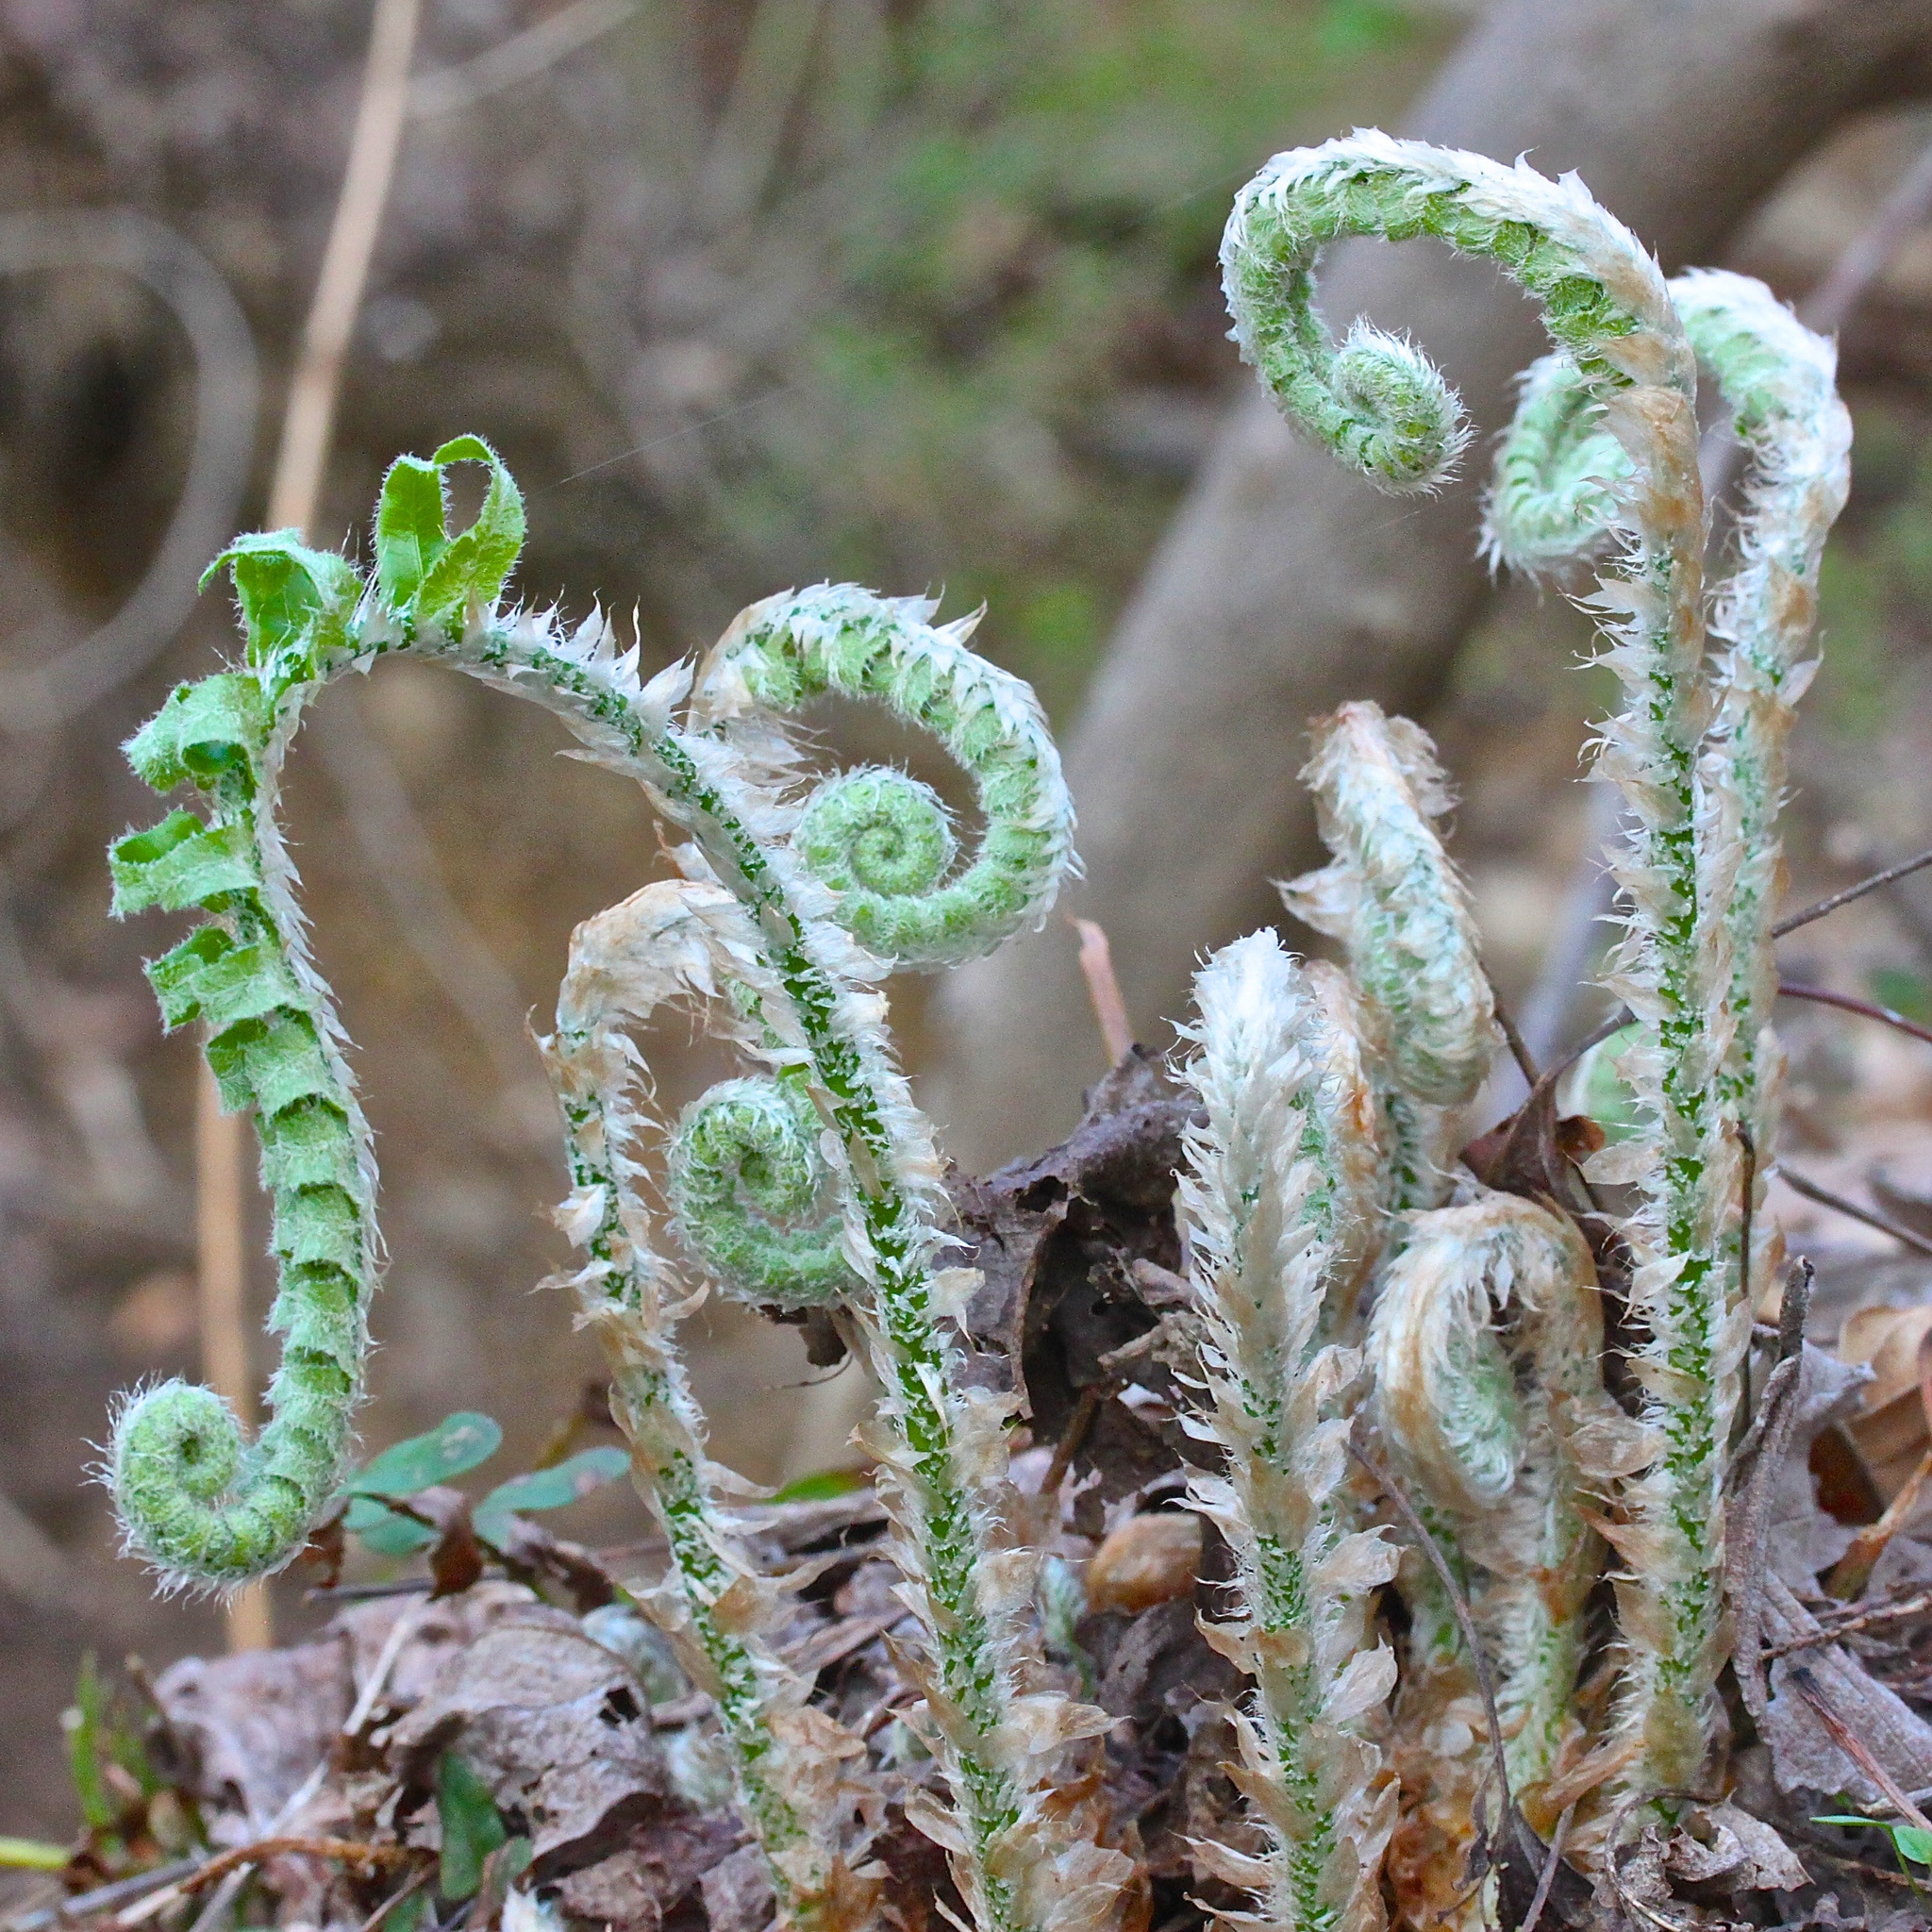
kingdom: Plantae
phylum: Tracheophyta
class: Polypodiopsida
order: Polypodiales
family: Dryopteridaceae
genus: Polystichum
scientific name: Polystichum acrostichoides
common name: Christmas fern
